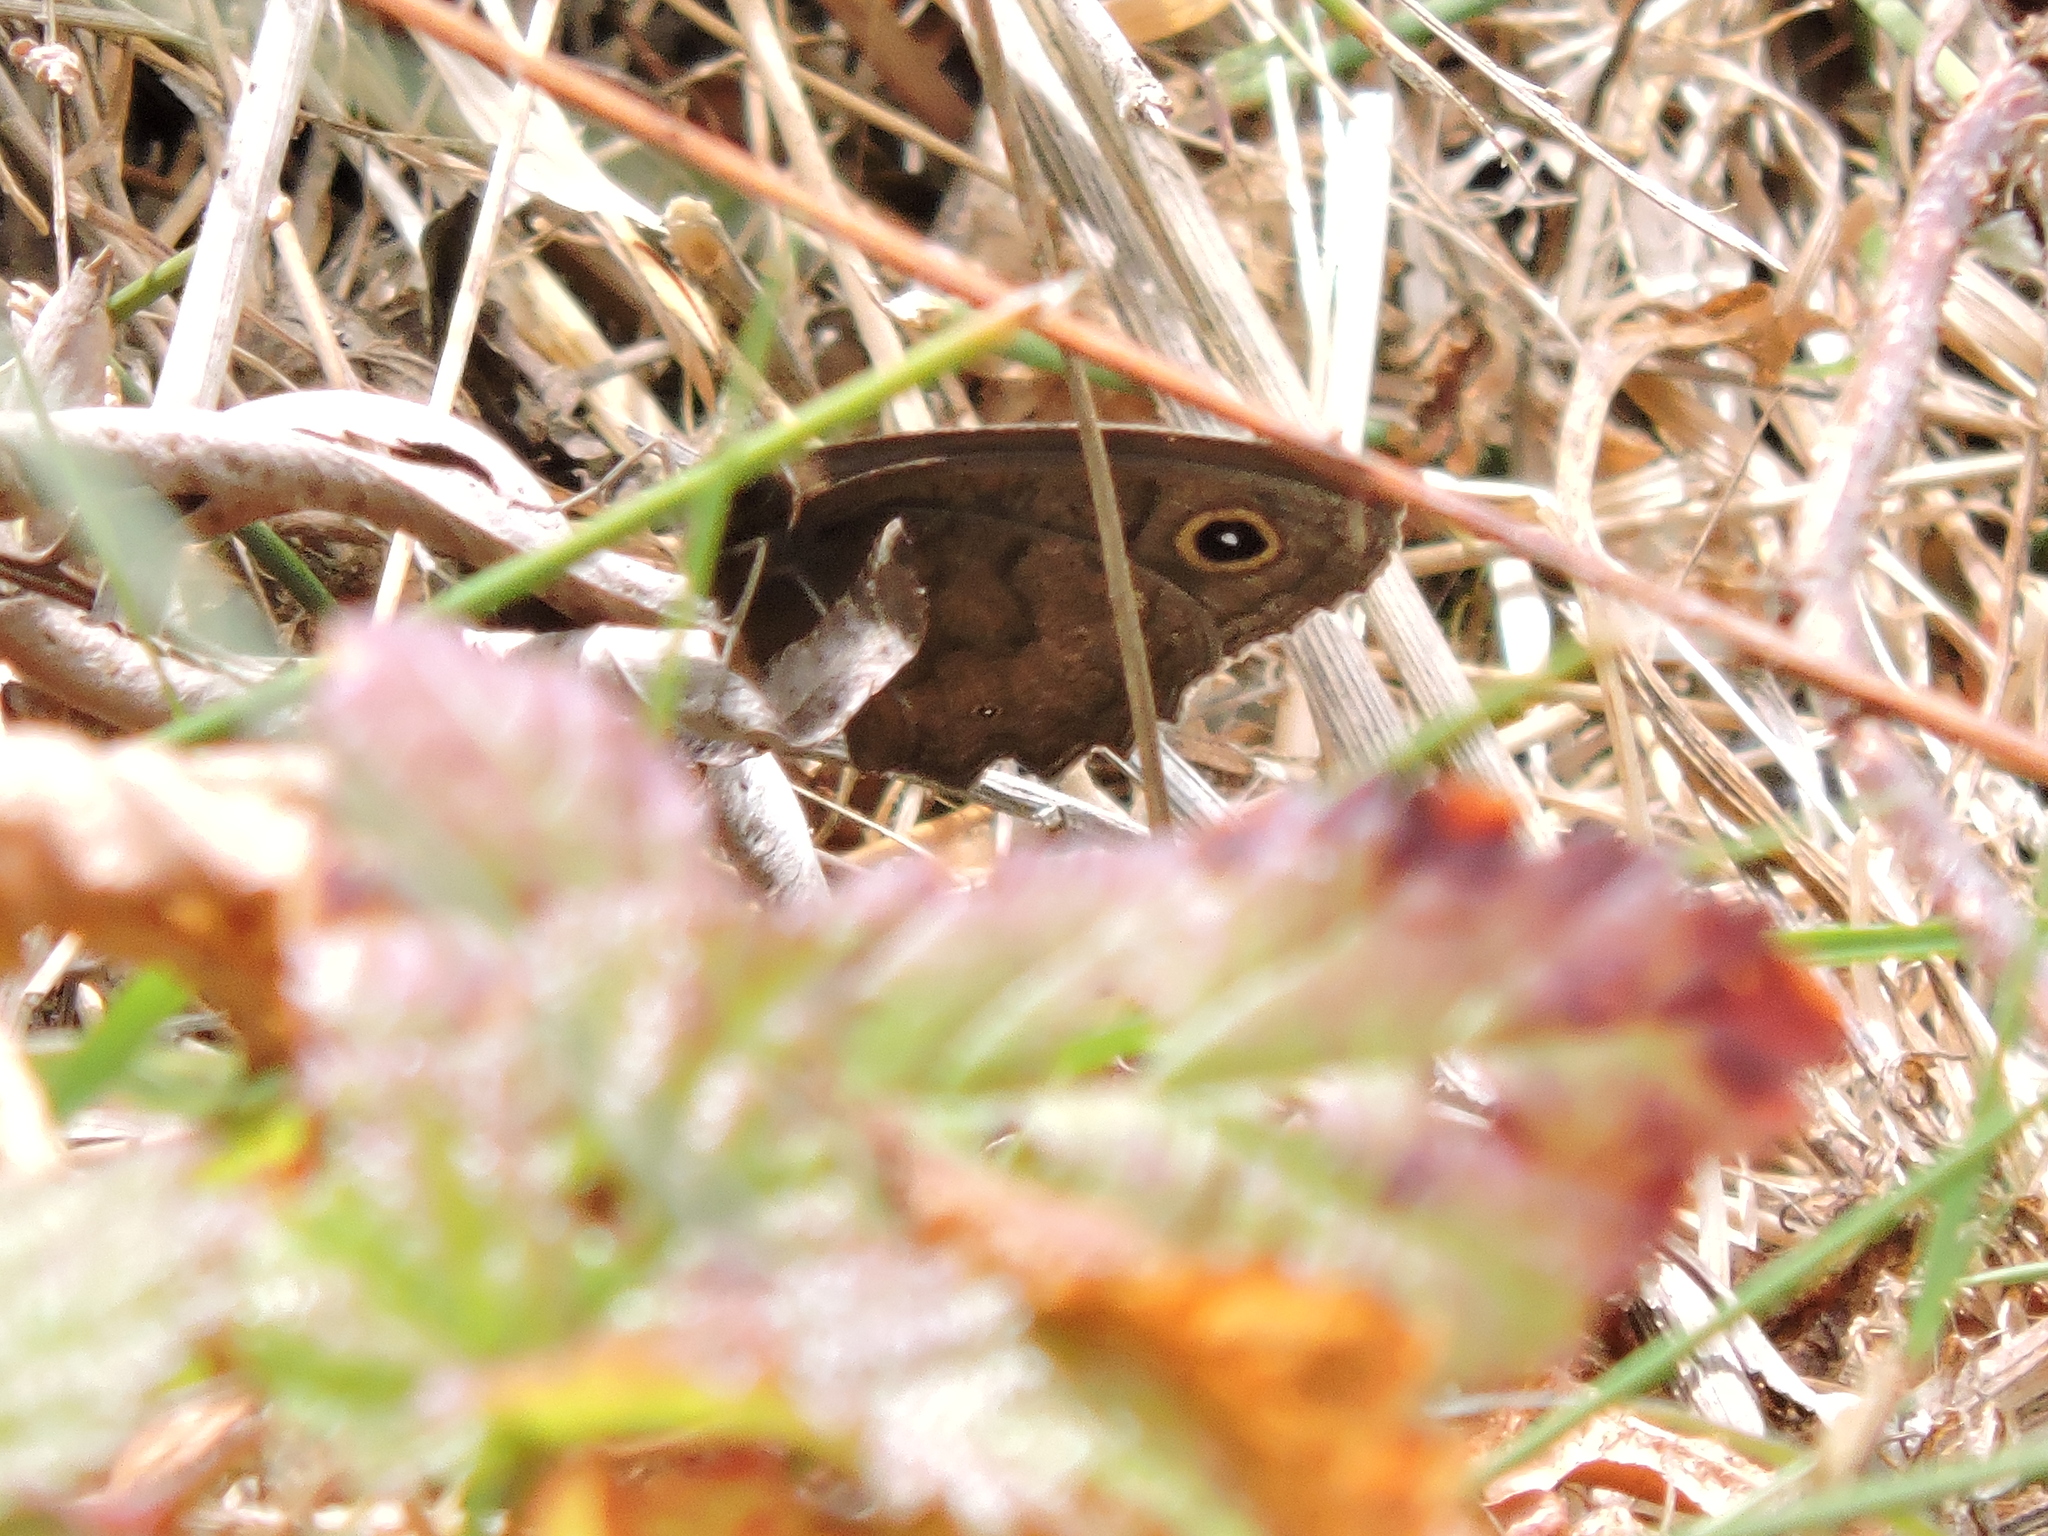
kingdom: Animalia
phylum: Arthropoda
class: Insecta
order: Lepidoptera
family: Nymphalidae
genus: Cercyonis
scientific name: Cercyonis pegala
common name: Common wood-nymph
